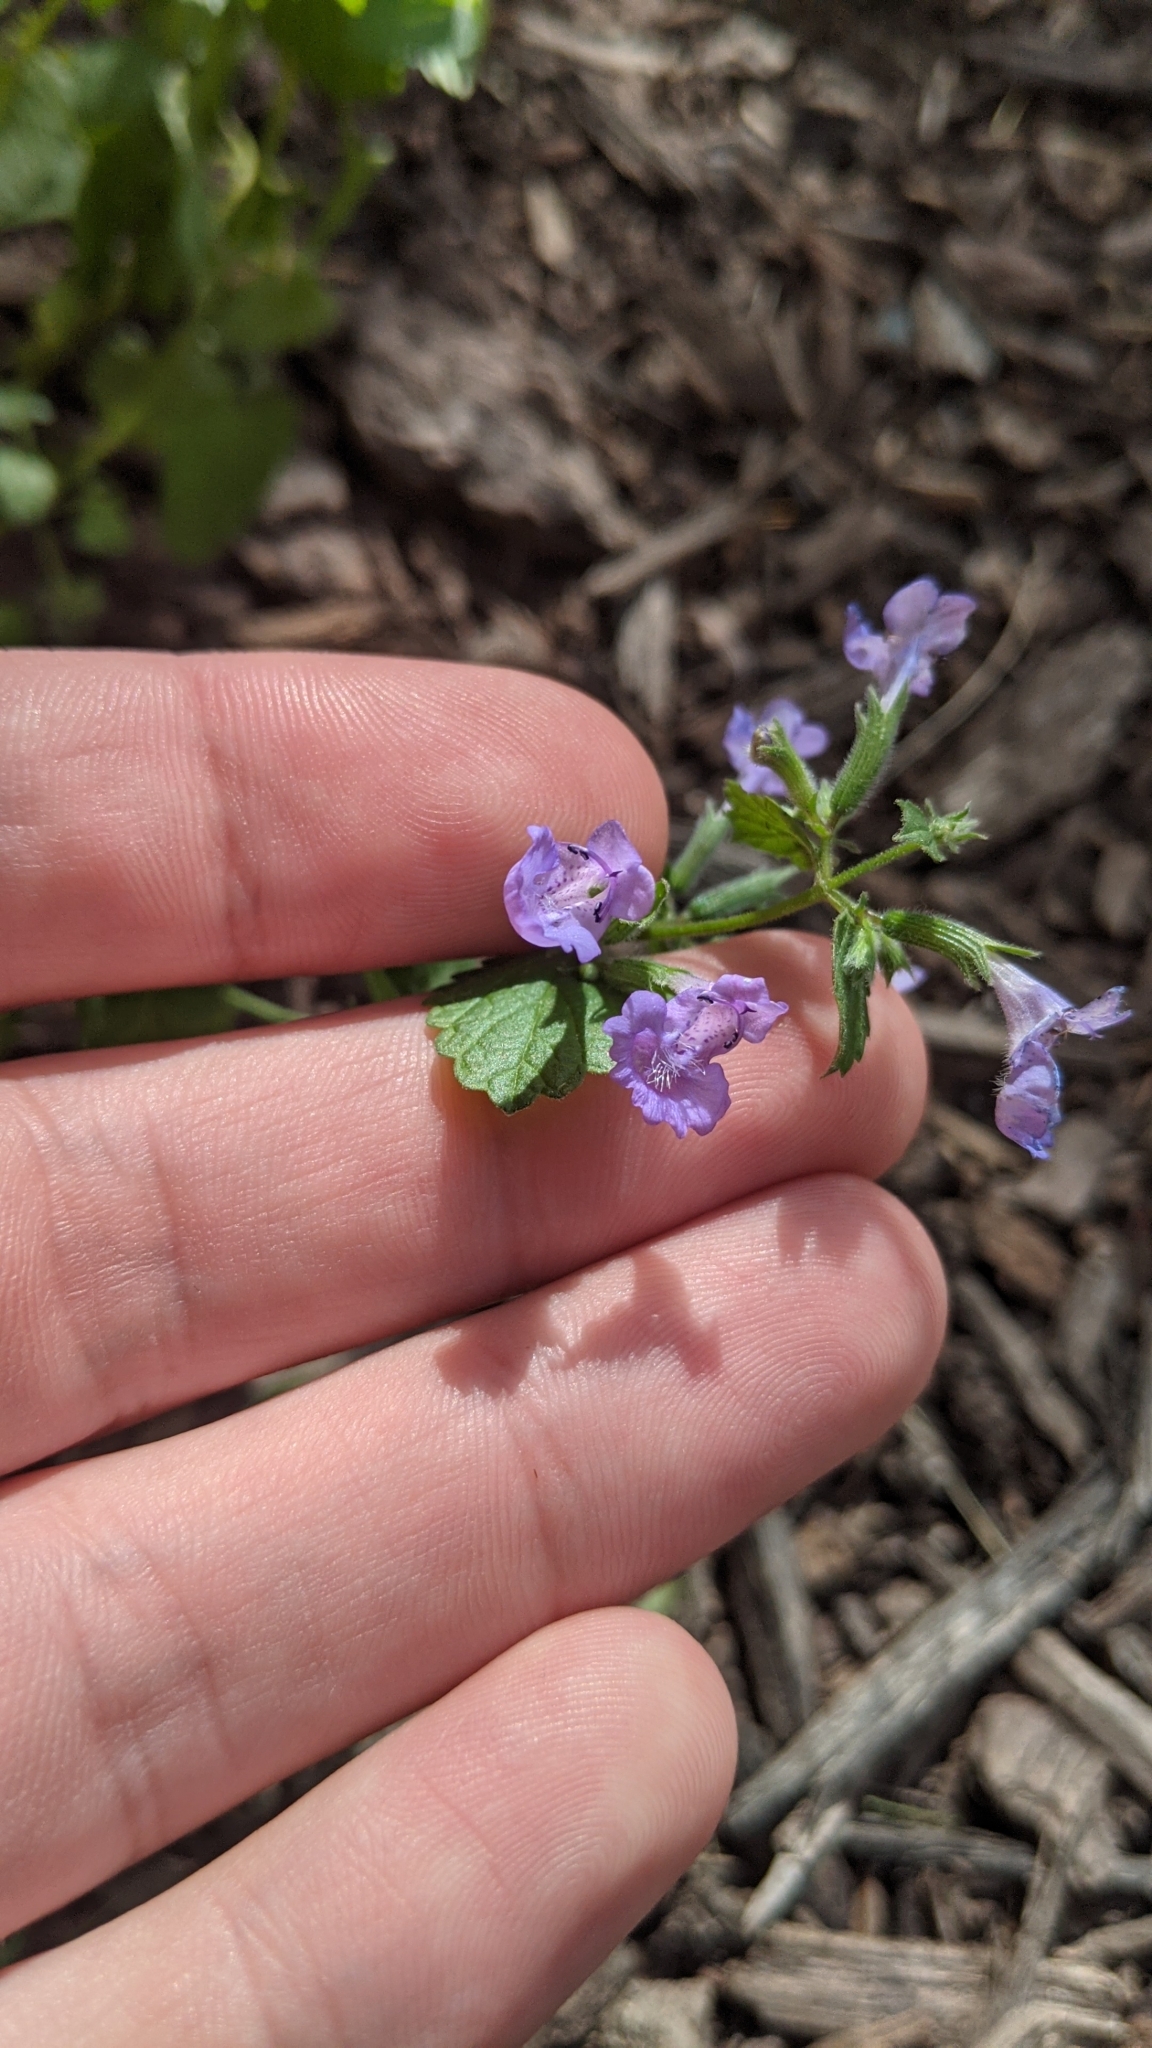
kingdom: Plantae
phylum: Tracheophyta
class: Magnoliopsida
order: Lamiales
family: Lamiaceae
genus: Glechoma
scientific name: Glechoma hederacea
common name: Ground ivy
